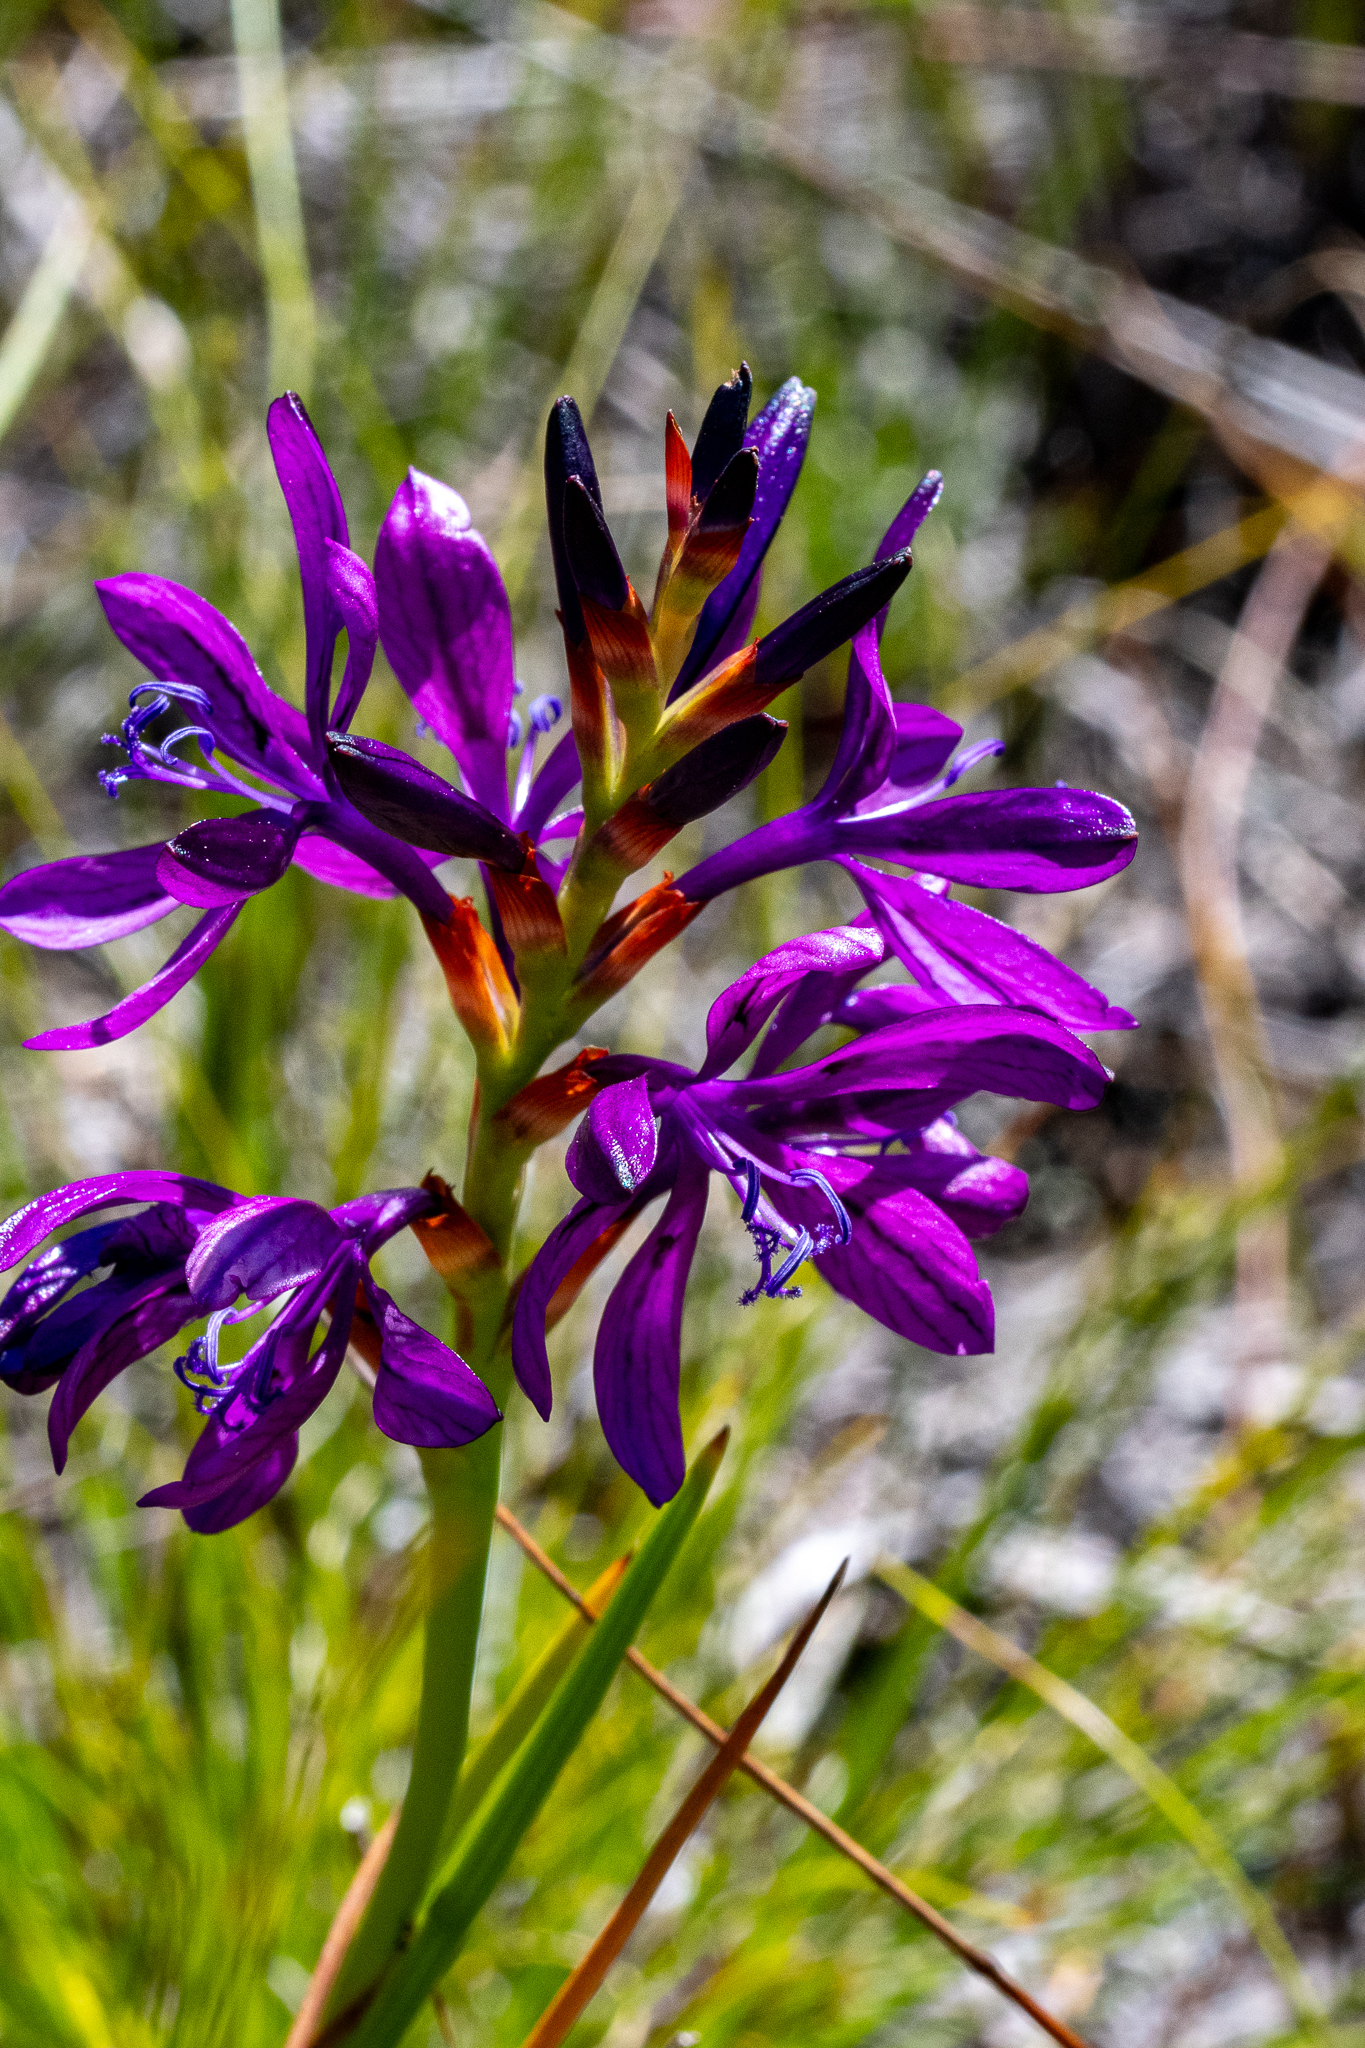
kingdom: Plantae
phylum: Tracheophyta
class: Liliopsida
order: Asparagales
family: Iridaceae
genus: Thereianthus
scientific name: Thereianthus bracteolatus
